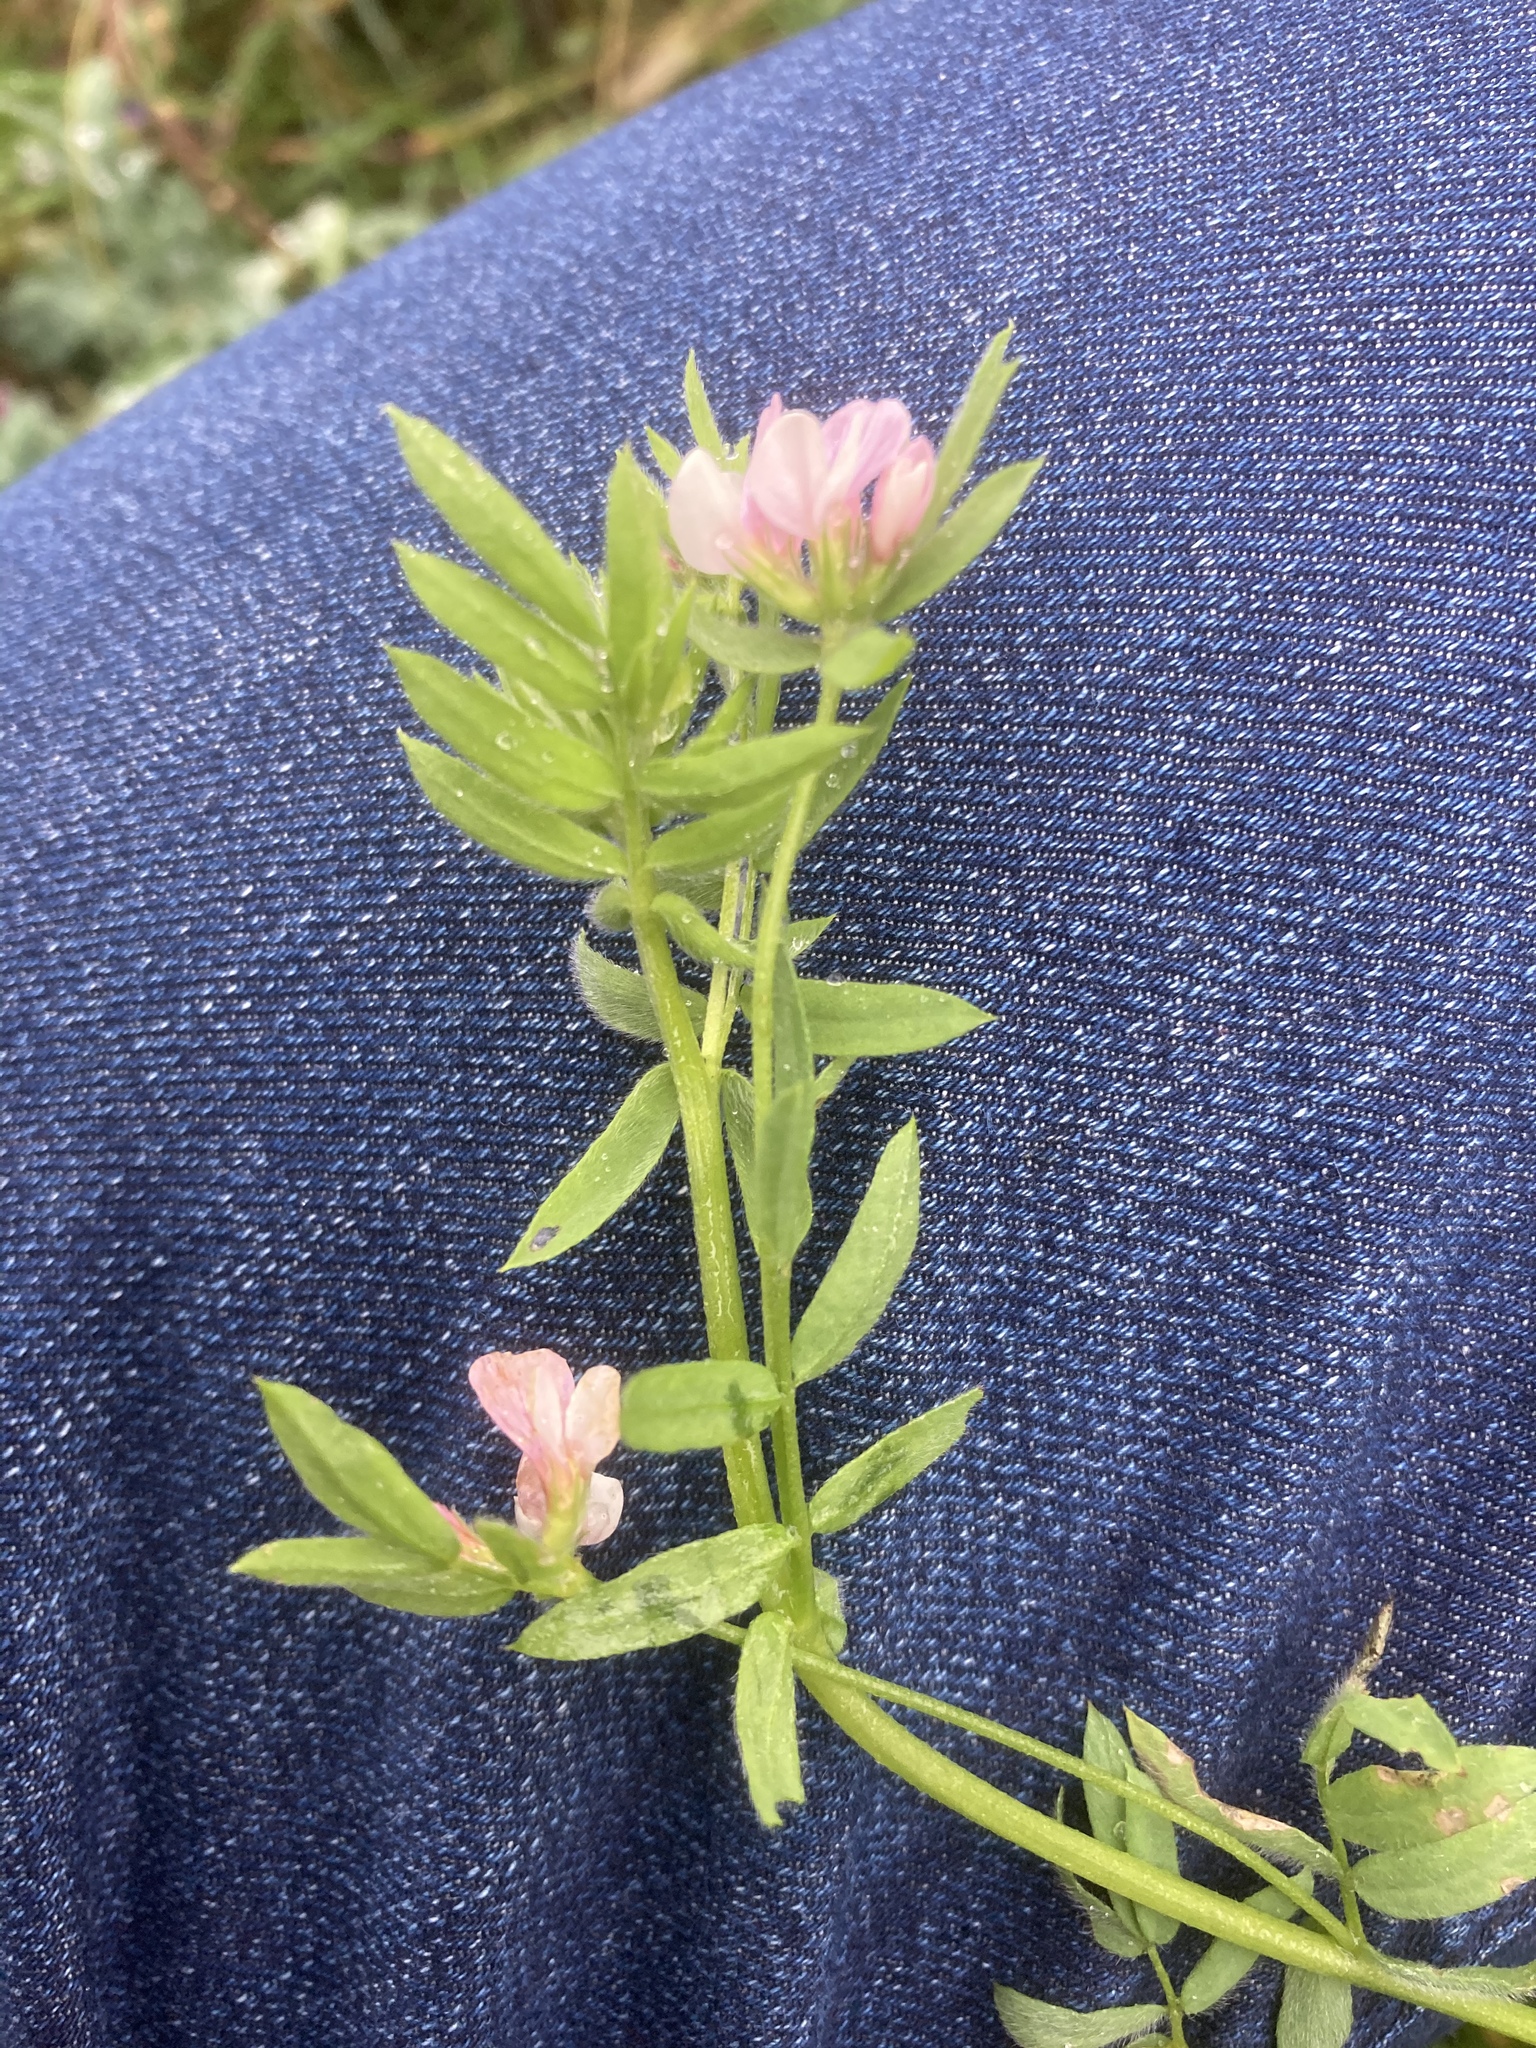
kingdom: Plantae
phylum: Tracheophyta
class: Magnoliopsida
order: Fabales
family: Fabaceae
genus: Ornithopus
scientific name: Ornithopus sativus
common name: Serradella
